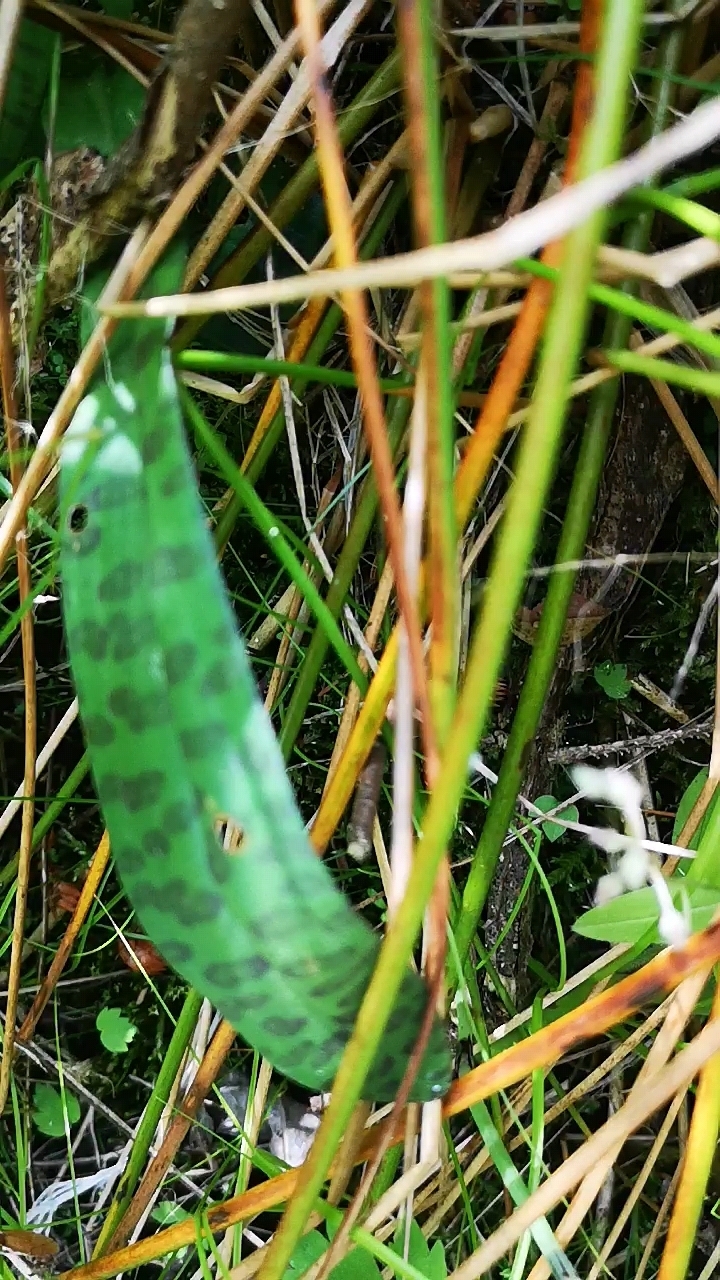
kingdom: Plantae
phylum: Tracheophyta
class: Liliopsida
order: Asparagales
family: Orchidaceae
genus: Dactylorhiza
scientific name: Dactylorhiza maculata
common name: Heath spotted-orchid
